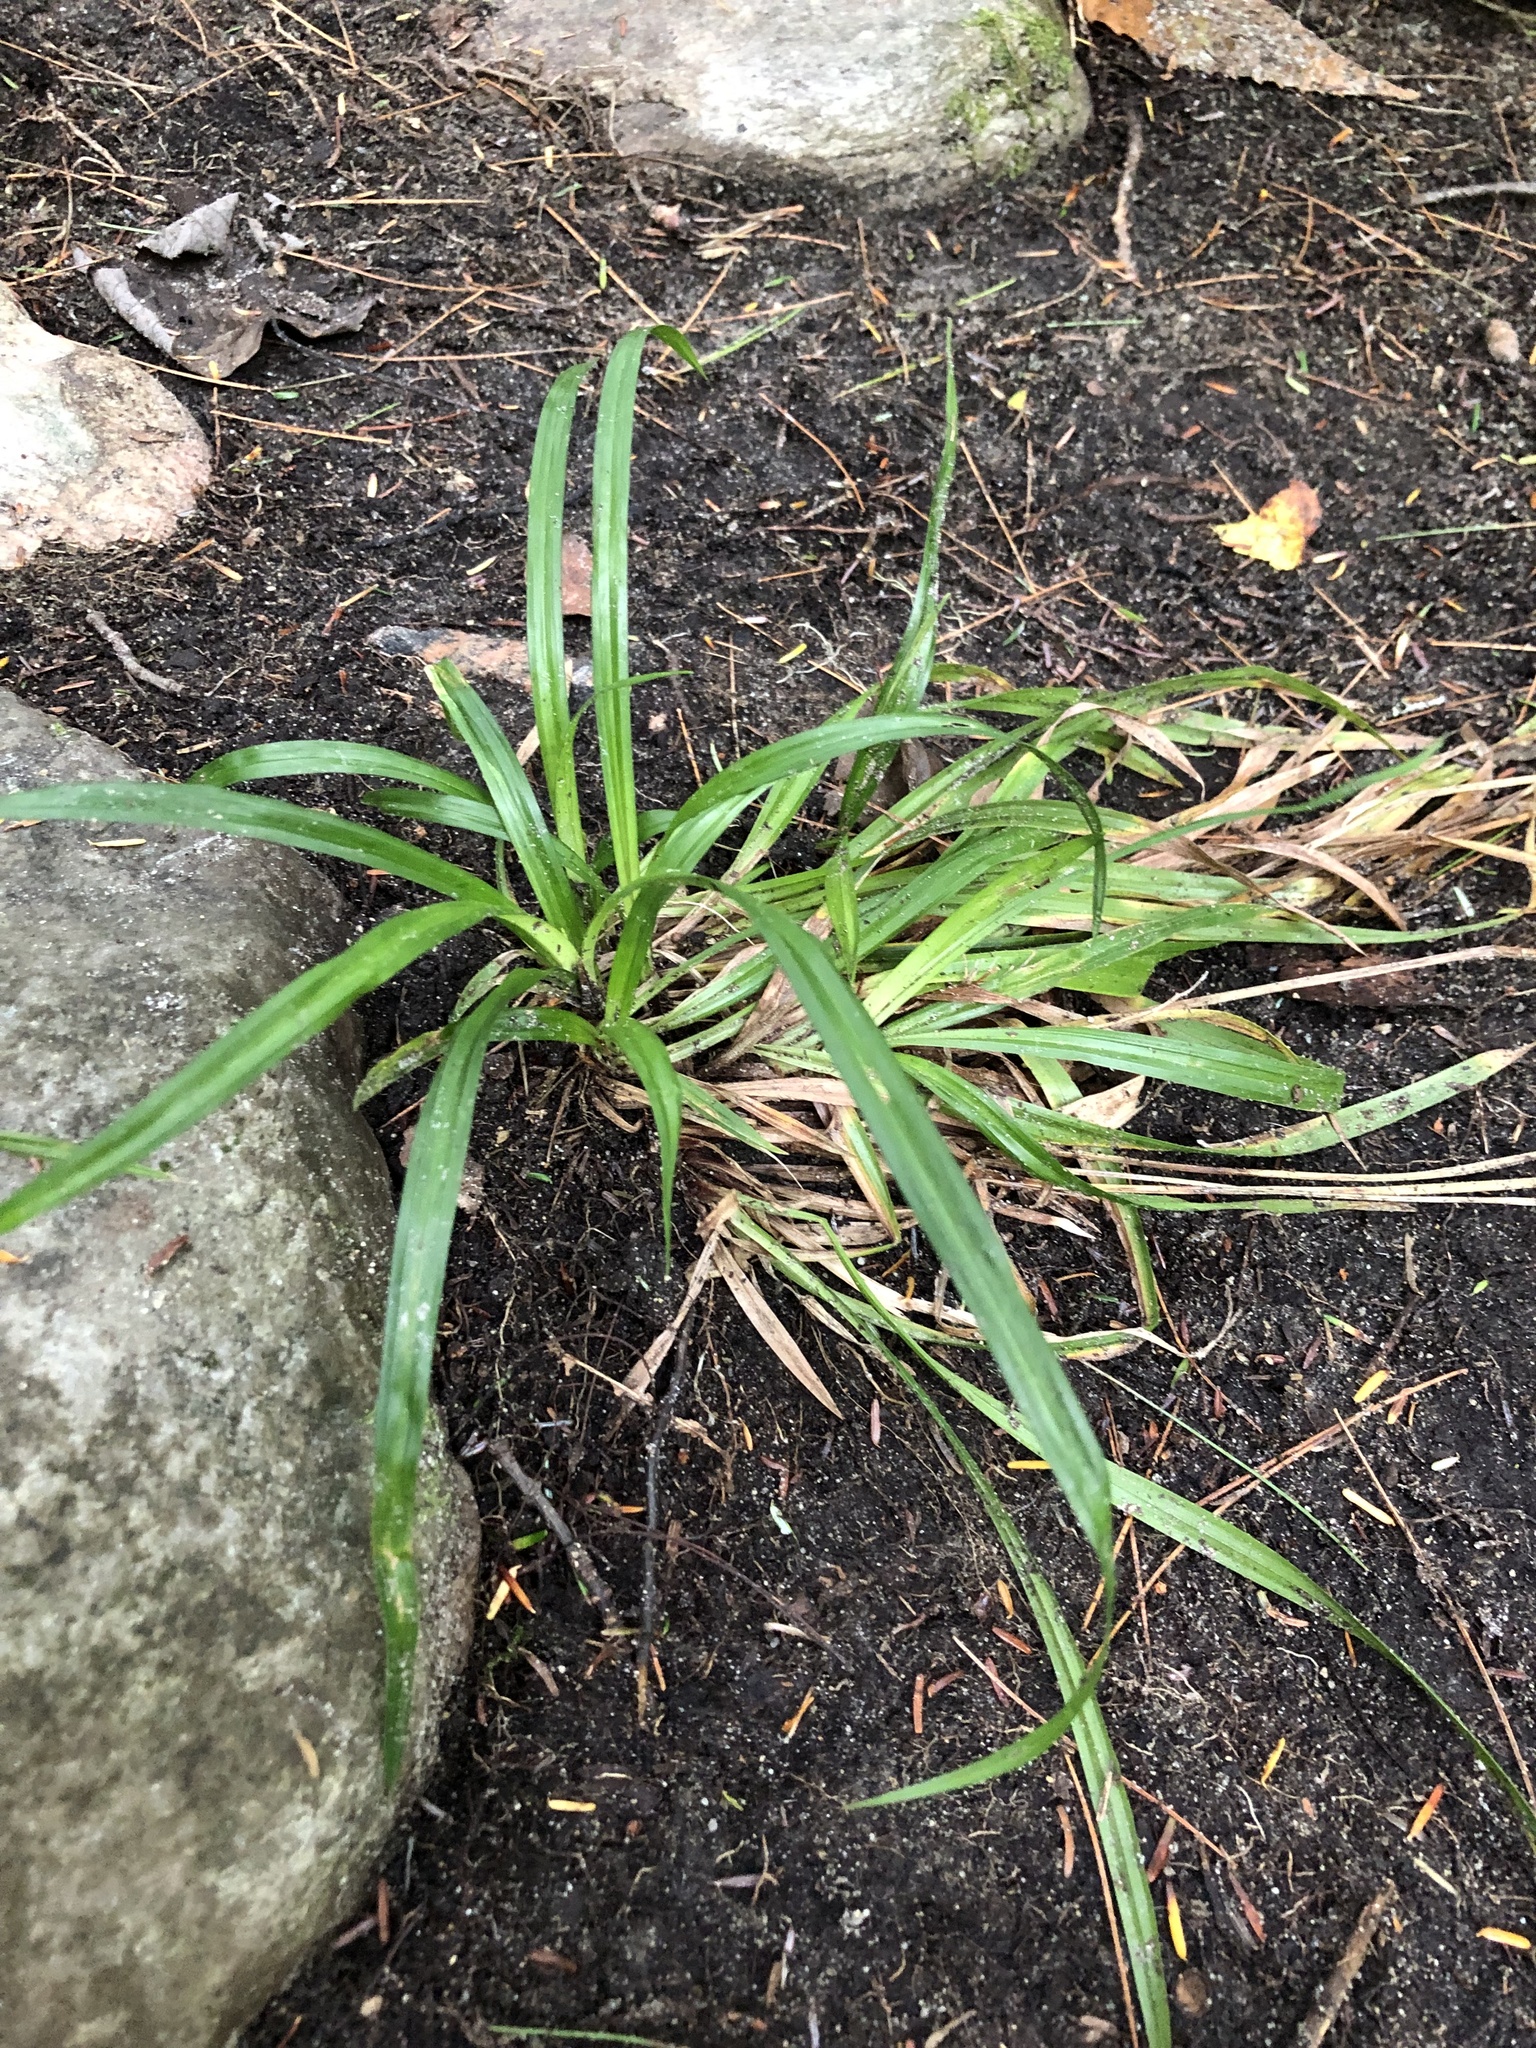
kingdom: Plantae
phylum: Tracheophyta
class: Liliopsida
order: Poales
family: Cyperaceae
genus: Carex
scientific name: Carex
